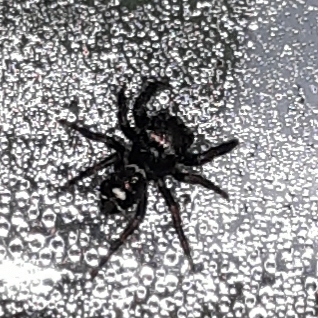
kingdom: Animalia
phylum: Arthropoda
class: Arachnida
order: Araneae
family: Salticidae
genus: Phidippus
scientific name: Phidippus audax
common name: Bold jumper
